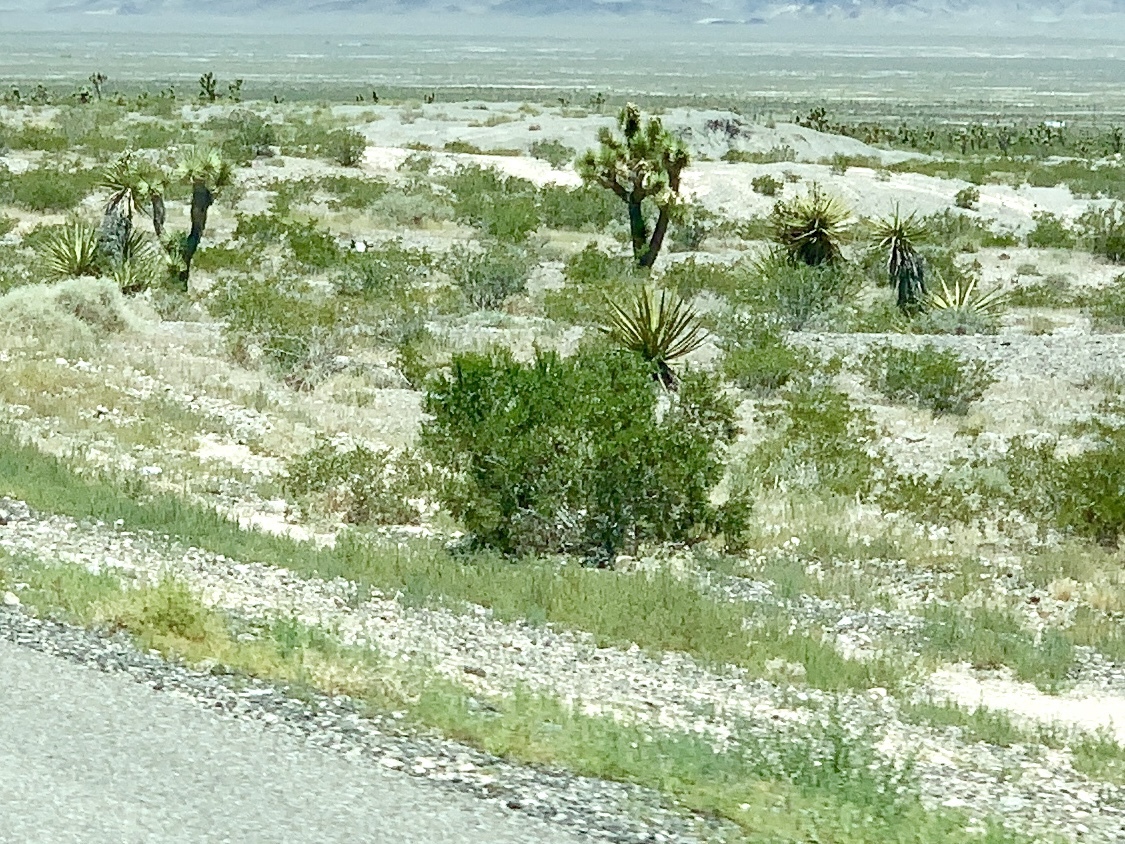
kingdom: Plantae
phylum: Tracheophyta
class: Magnoliopsida
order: Zygophyllales
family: Zygophyllaceae
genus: Larrea
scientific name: Larrea tridentata
